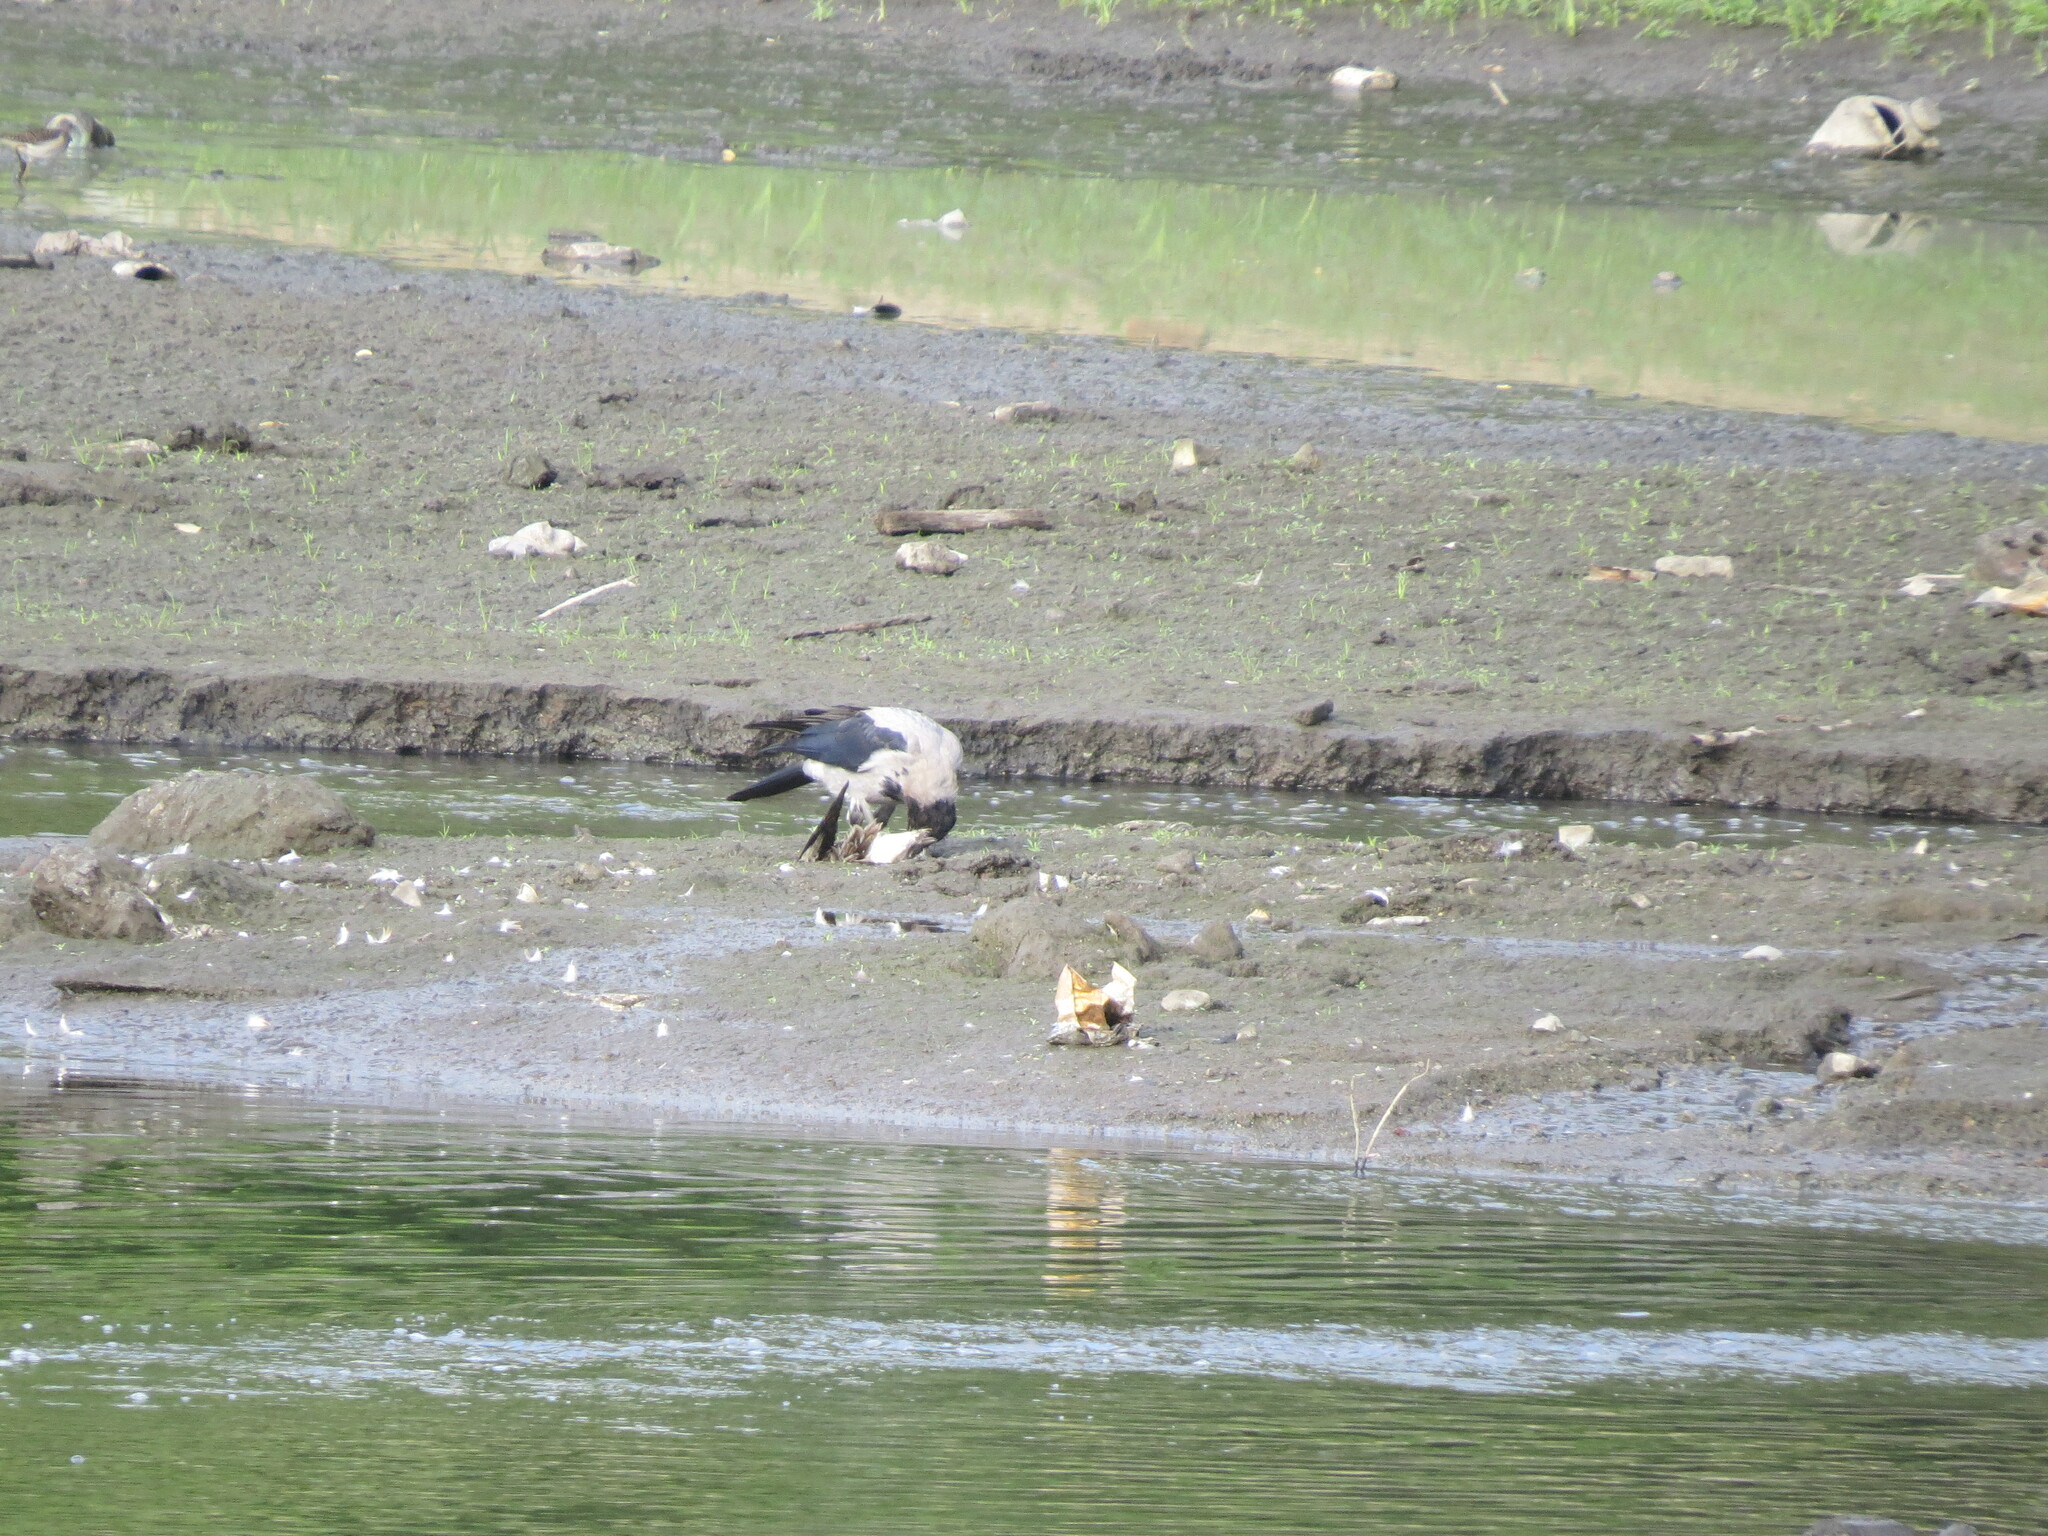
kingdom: Animalia
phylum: Chordata
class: Aves
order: Passeriformes
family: Corvidae
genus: Corvus
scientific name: Corvus cornix
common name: Hooded crow
